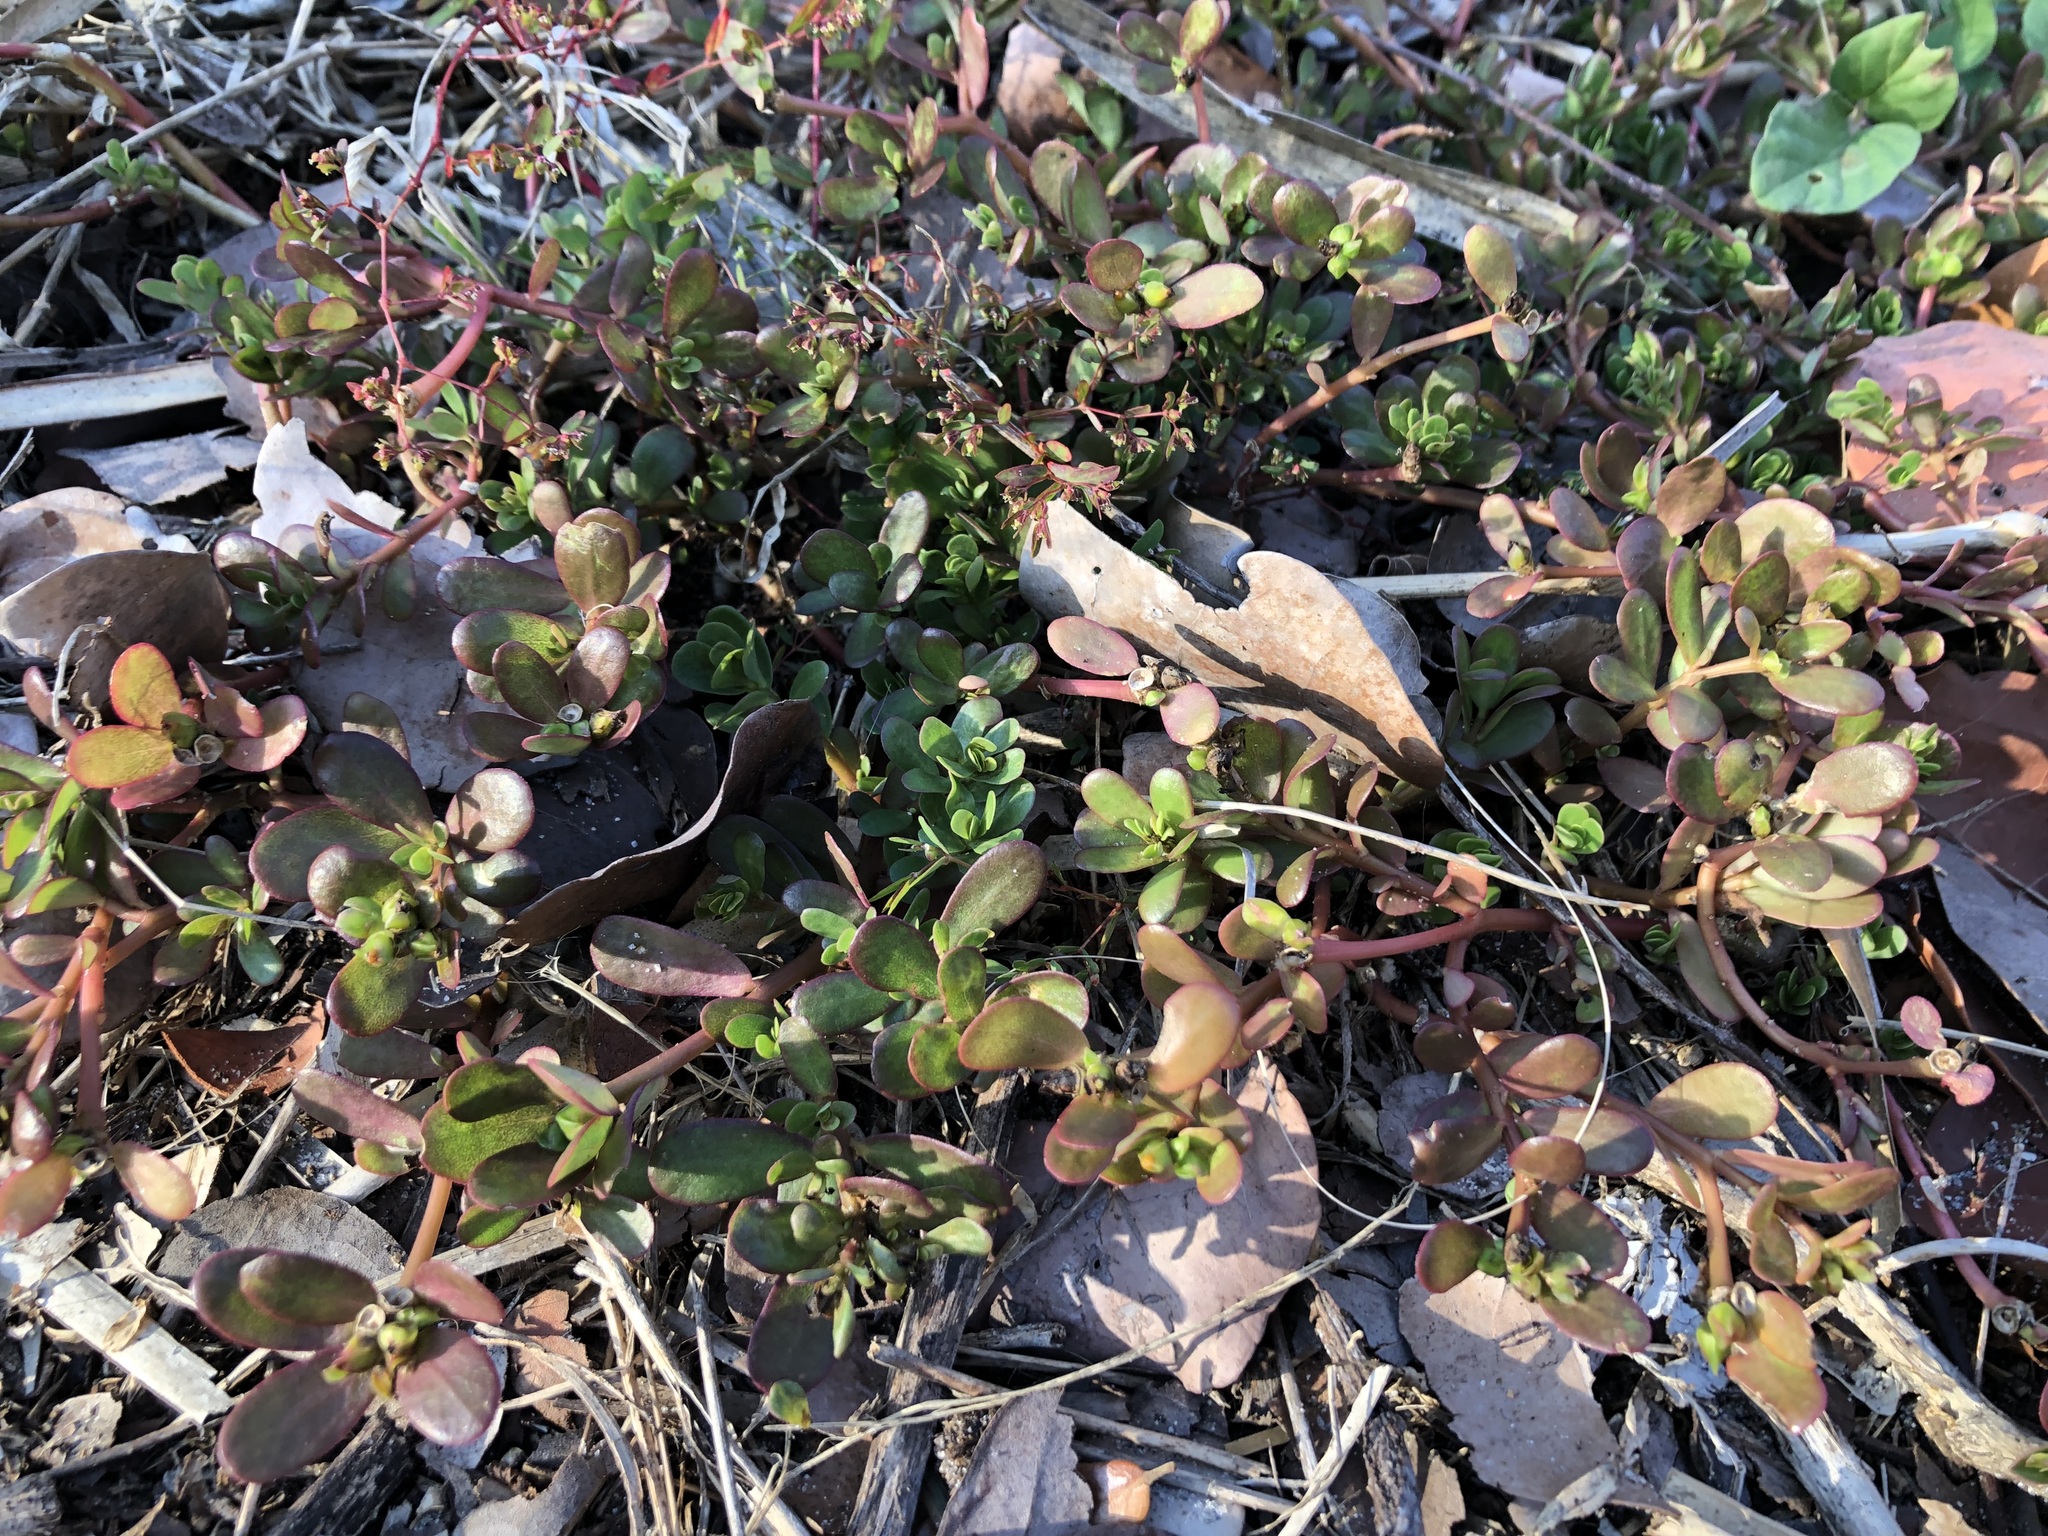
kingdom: Plantae
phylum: Tracheophyta
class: Magnoliopsida
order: Caryophyllales
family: Portulacaceae
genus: Portulaca
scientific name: Portulaca oleracea
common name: Common purslane
